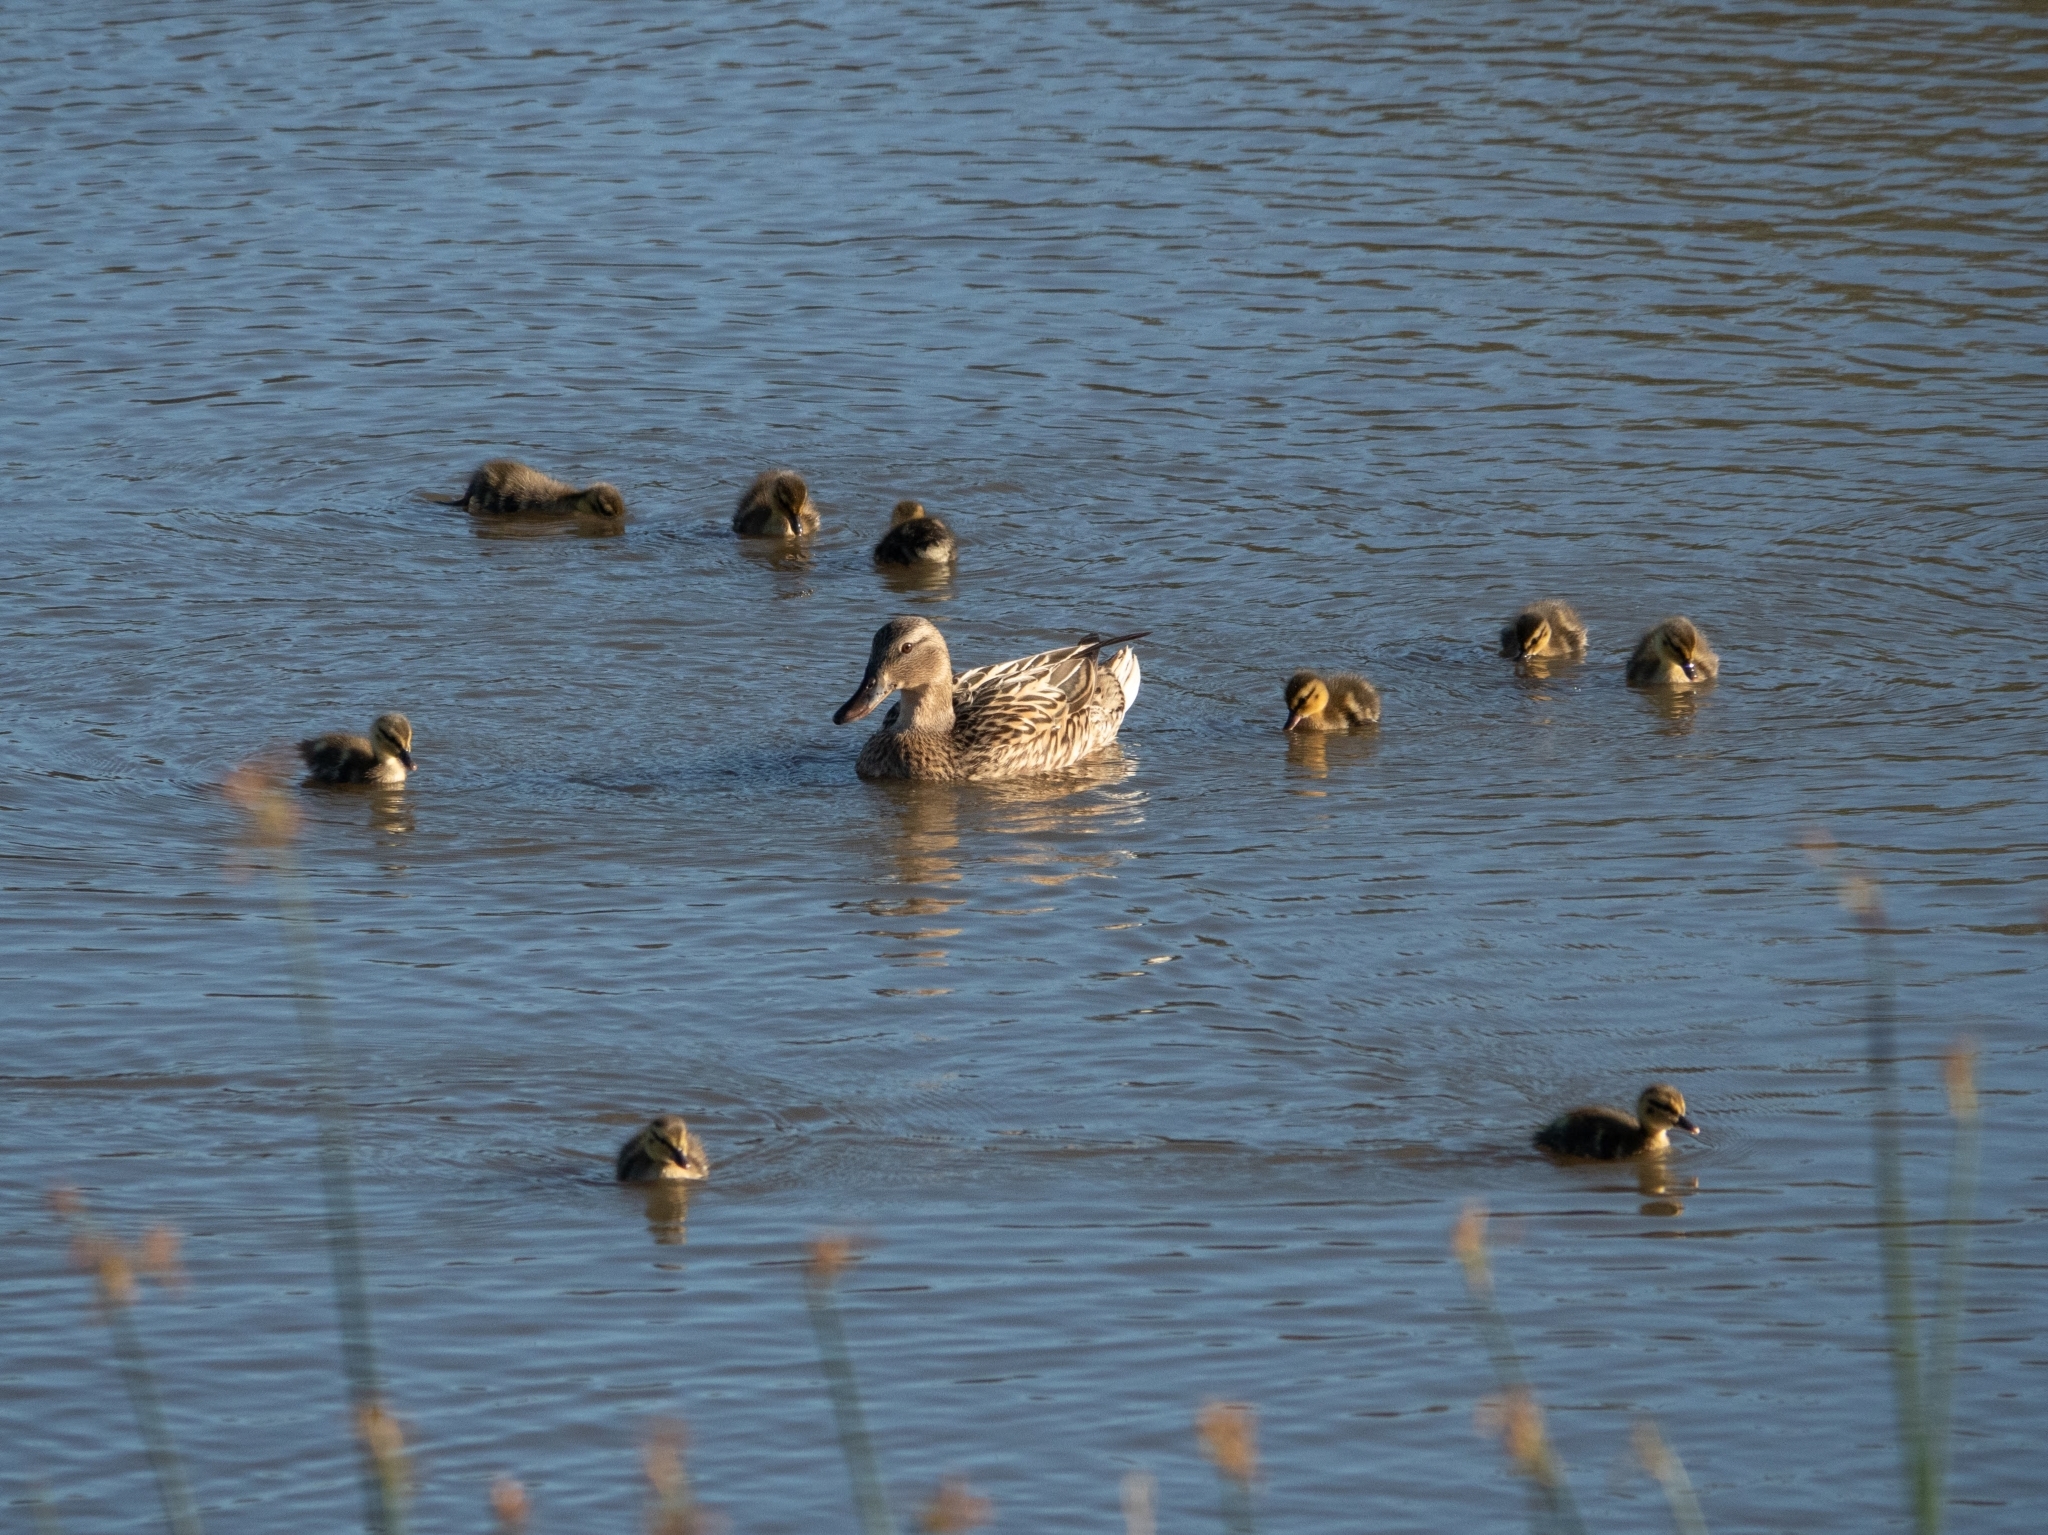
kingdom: Animalia
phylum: Chordata
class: Aves
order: Anseriformes
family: Anatidae
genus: Anas
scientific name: Anas platyrhynchos
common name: Mallard
